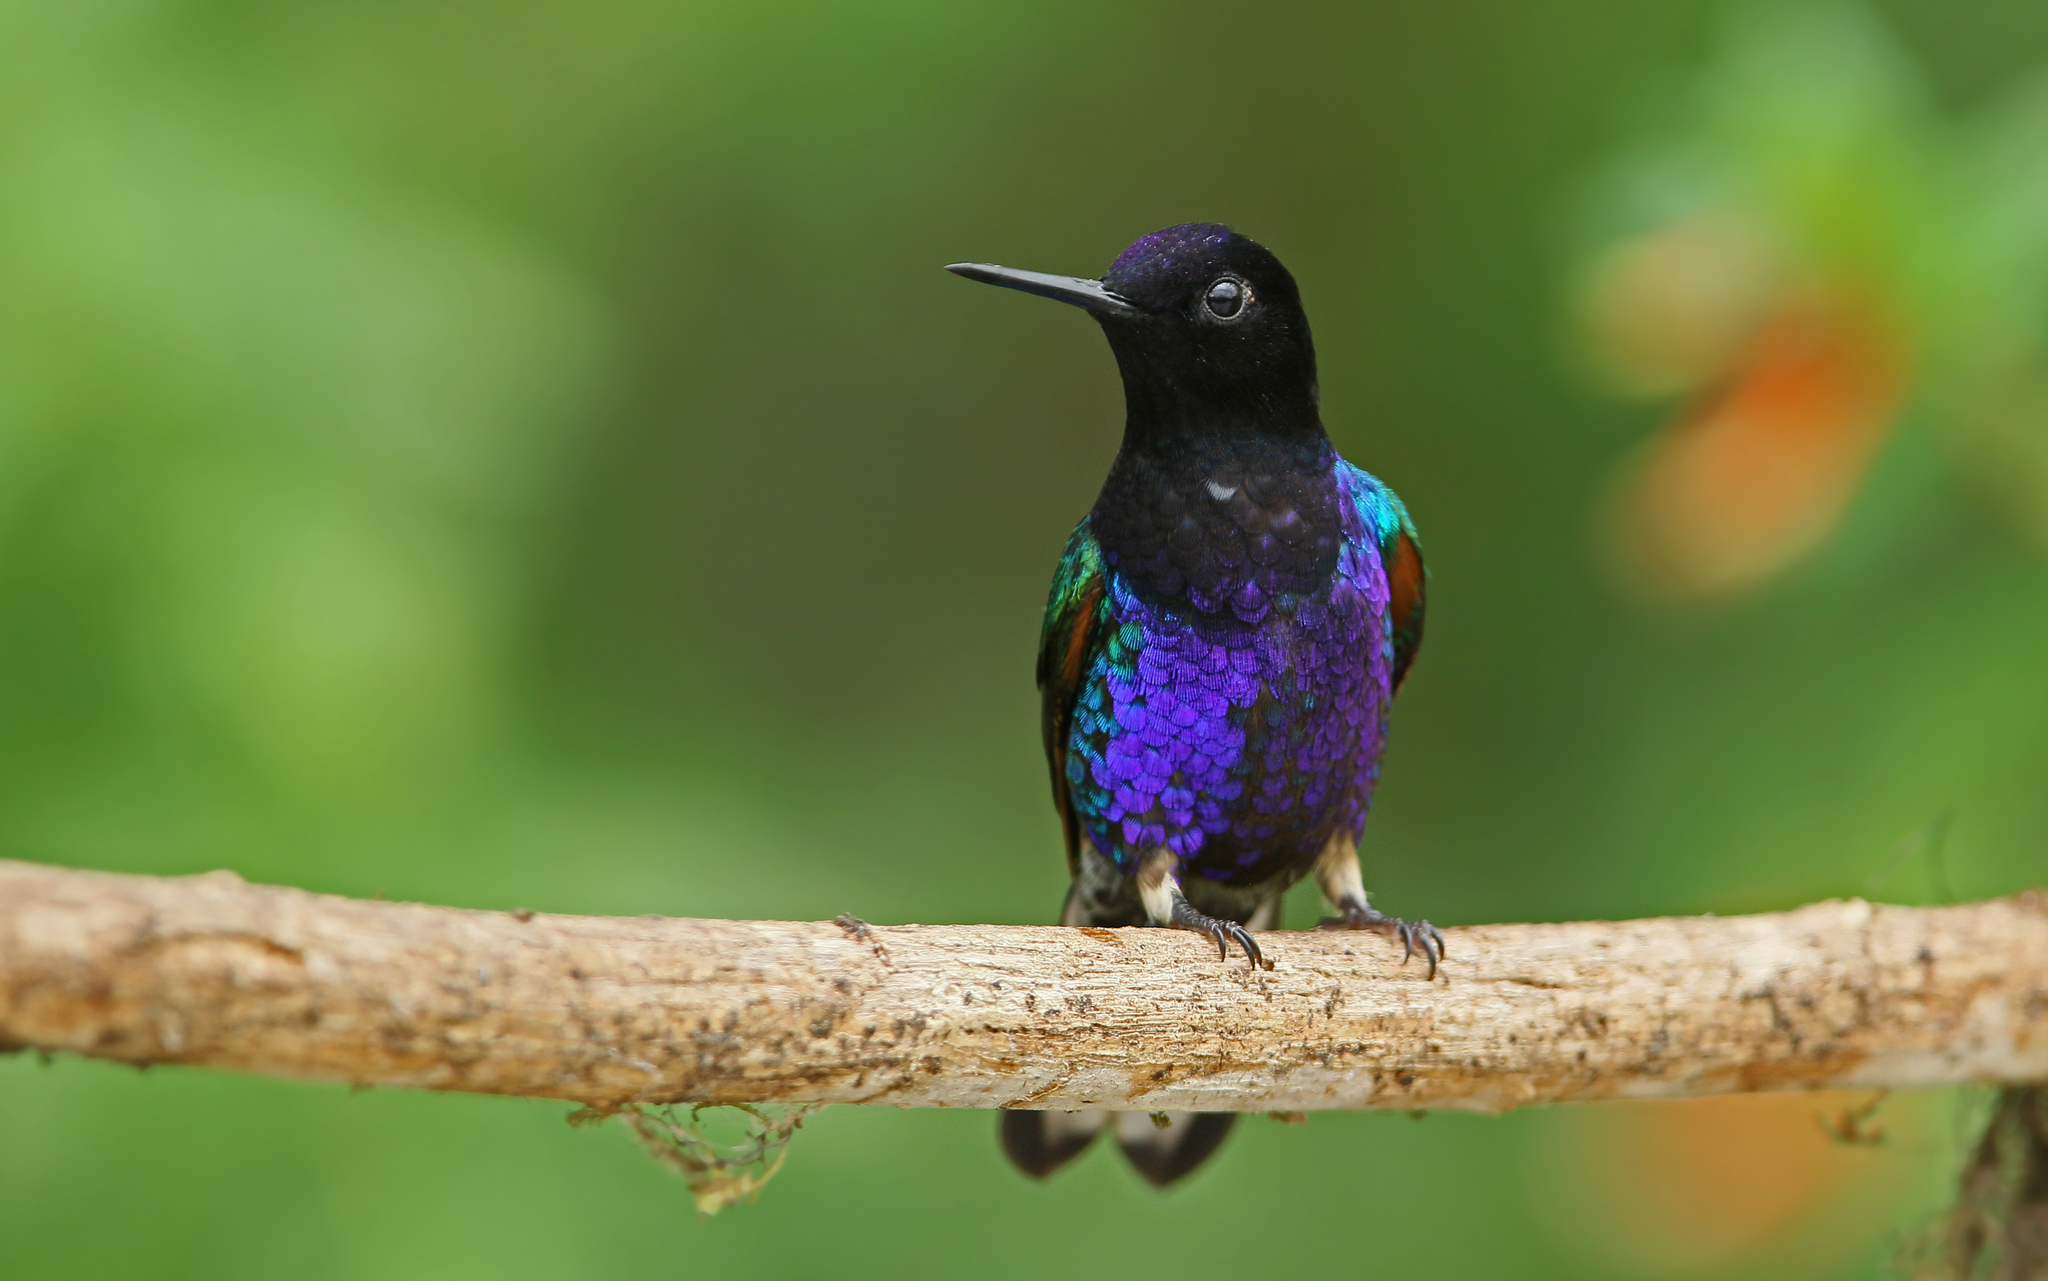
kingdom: Animalia
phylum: Chordata
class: Aves
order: Apodiformes
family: Trochilidae
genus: Boissonneaua
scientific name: Boissonneaua jardini
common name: Velvet-purple coronet
